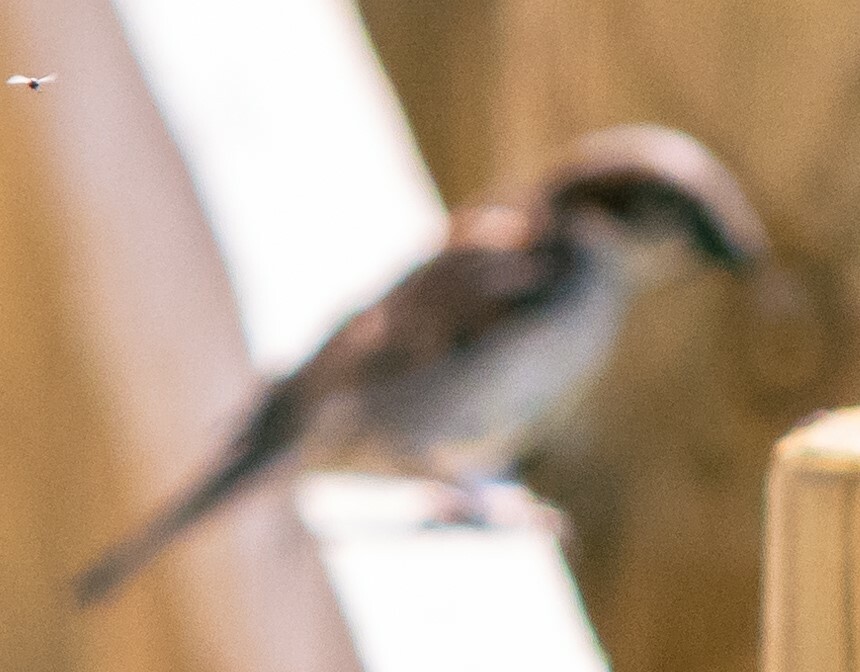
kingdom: Animalia
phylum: Chordata
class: Aves
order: Passeriformes
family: Passeridae
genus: Passer
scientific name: Passer domesticus
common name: House sparrow
